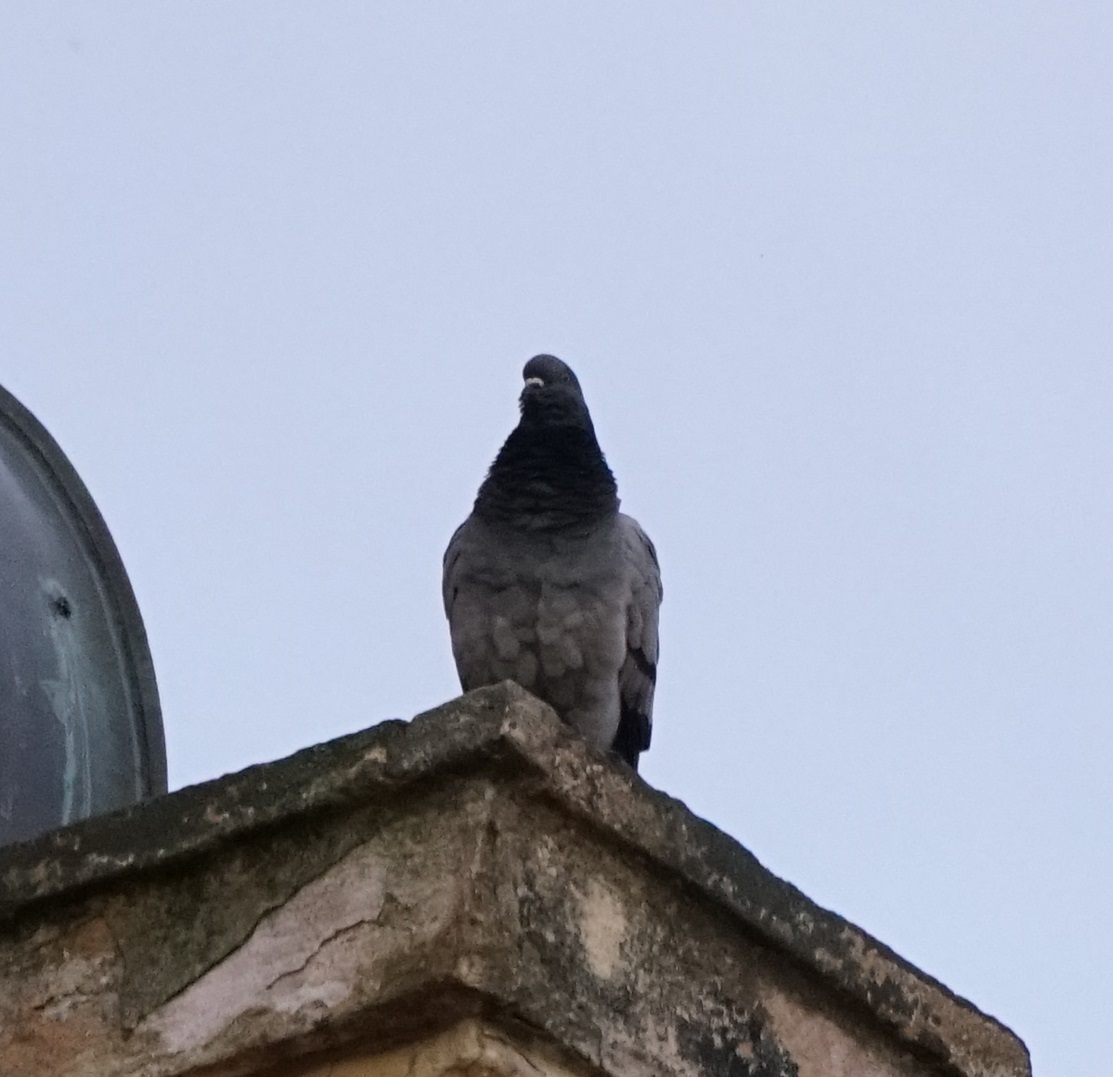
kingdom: Animalia
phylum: Chordata
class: Aves
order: Columbiformes
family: Columbidae
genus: Columba
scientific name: Columba livia
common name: Rock pigeon
